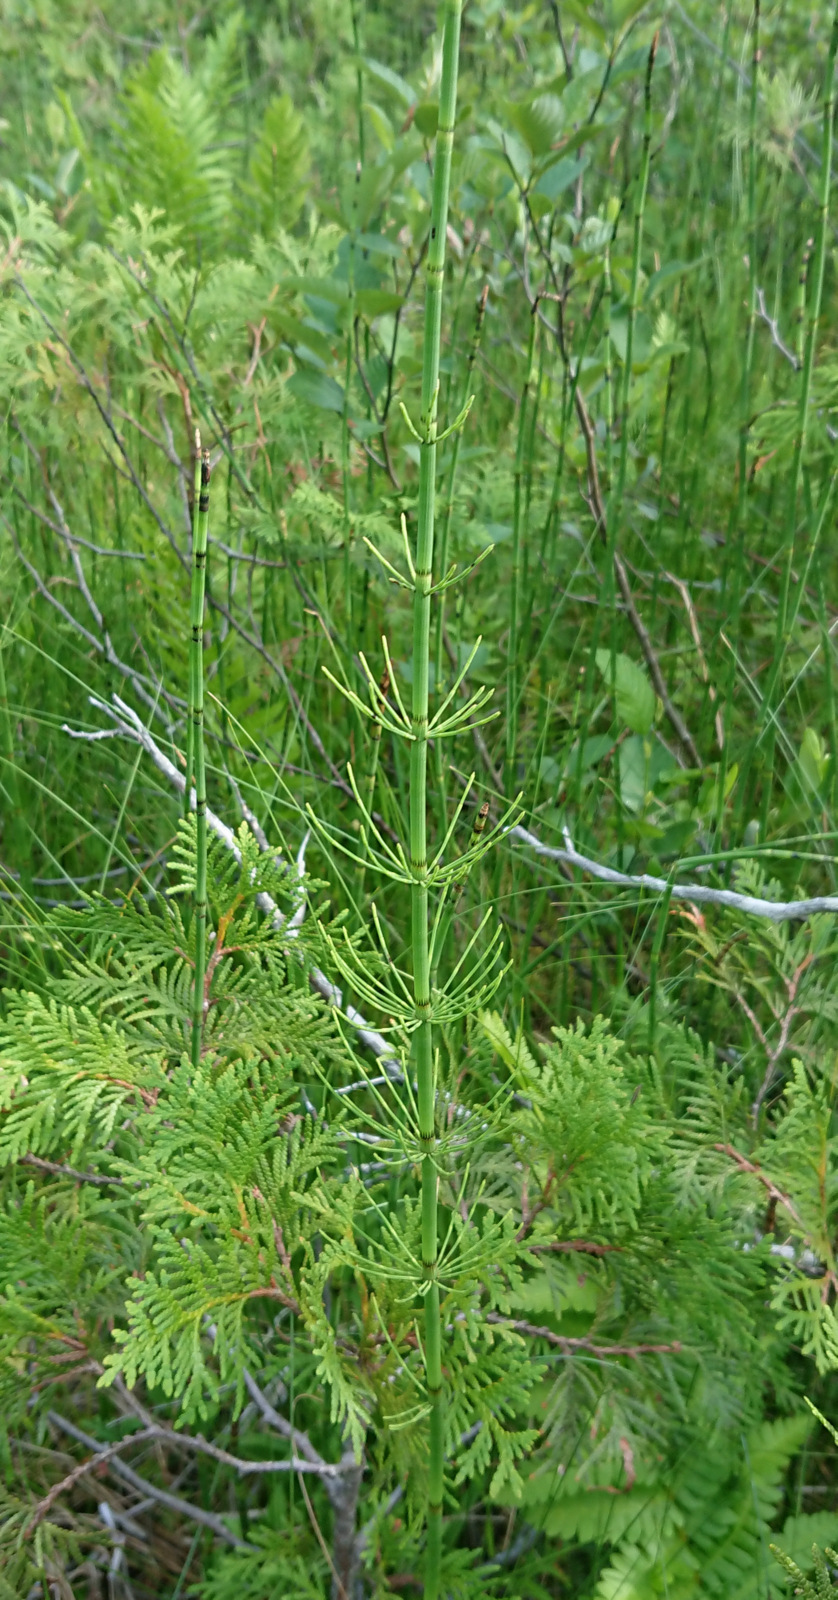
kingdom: Plantae
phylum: Tracheophyta
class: Polypodiopsida
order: Equisetales
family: Equisetaceae
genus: Equisetum
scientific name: Equisetum fluviatile
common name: Water horsetail
